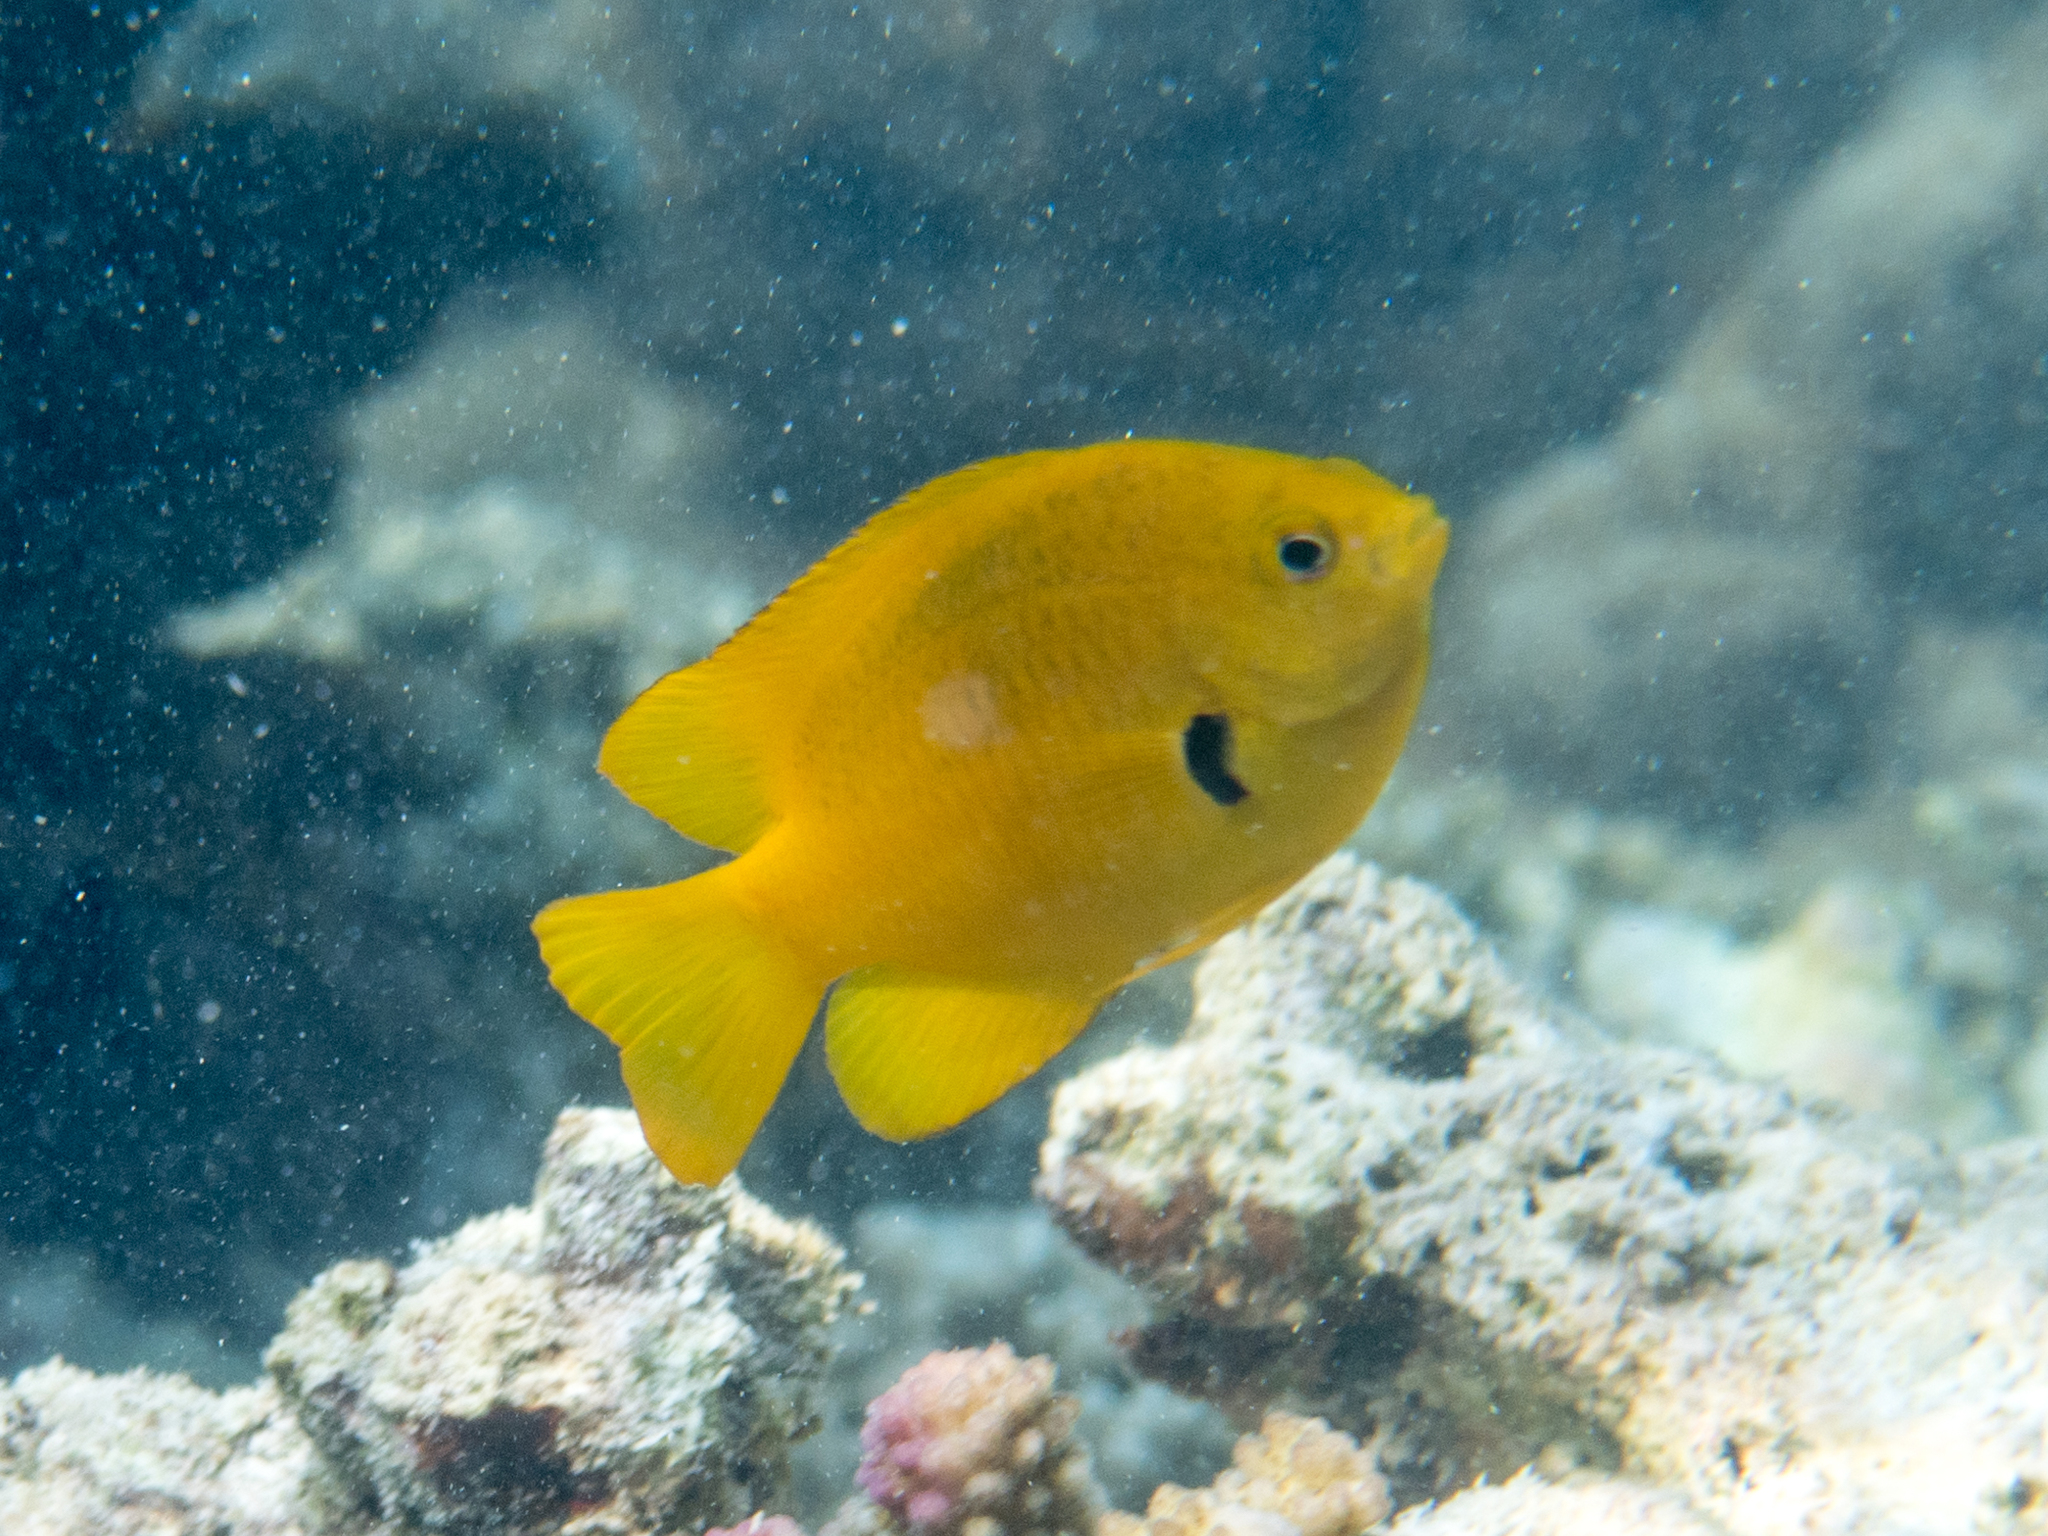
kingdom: Animalia
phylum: Chordata
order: Perciformes
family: Pomacentridae
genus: Pomacentrus
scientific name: Pomacentrus sulfureus
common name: Sulfur damsel
